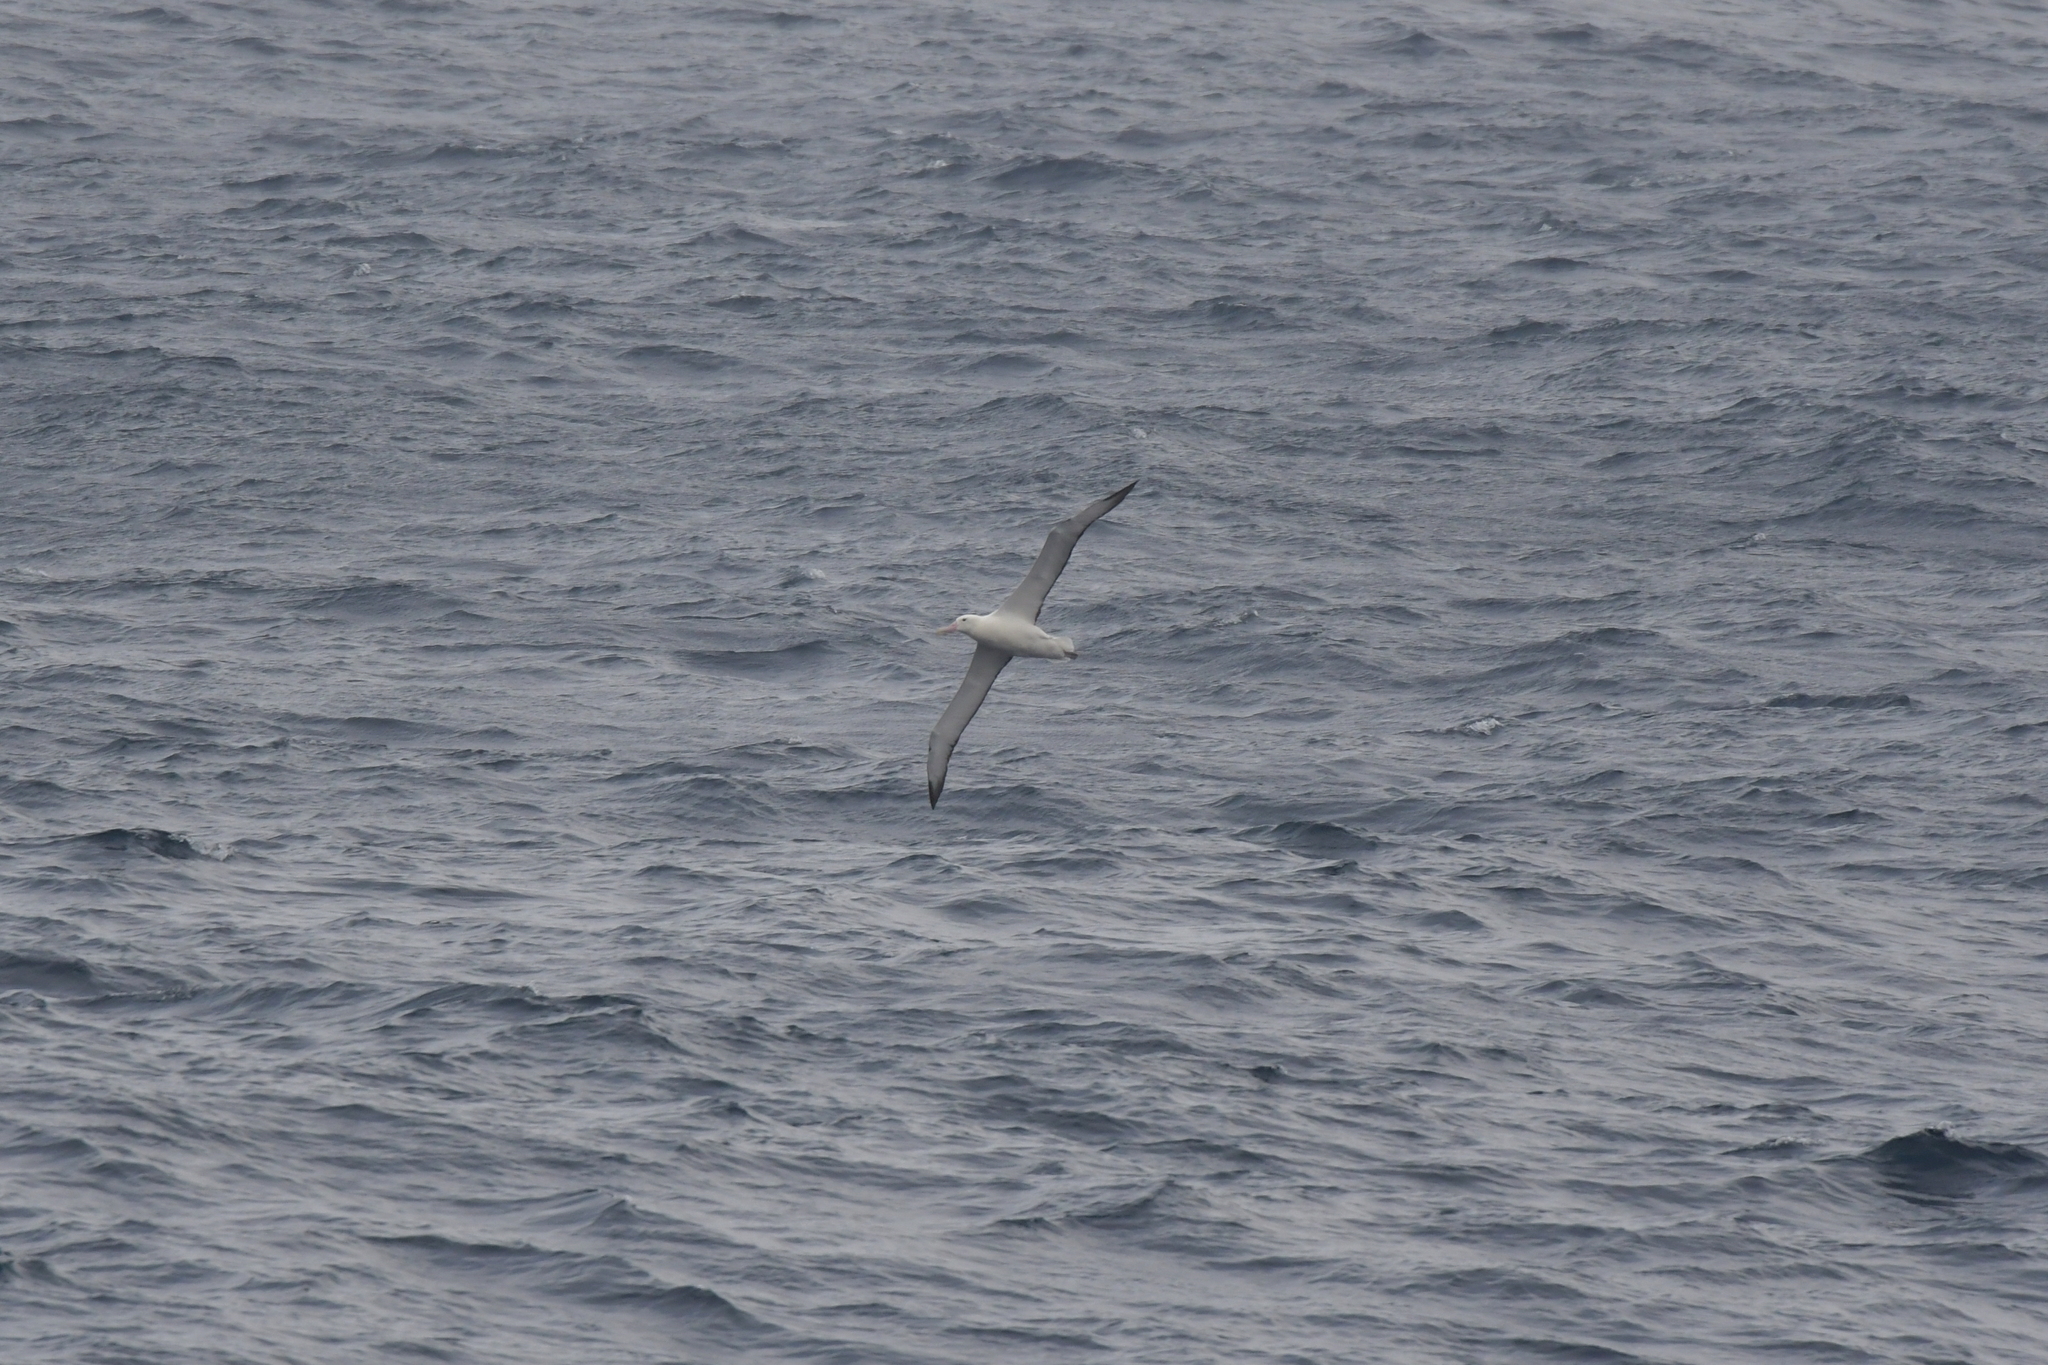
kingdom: Animalia
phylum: Chordata
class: Aves
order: Procellariiformes
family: Diomedeidae
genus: Diomedea
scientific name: Diomedea epomophora
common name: Southern royal albatross
